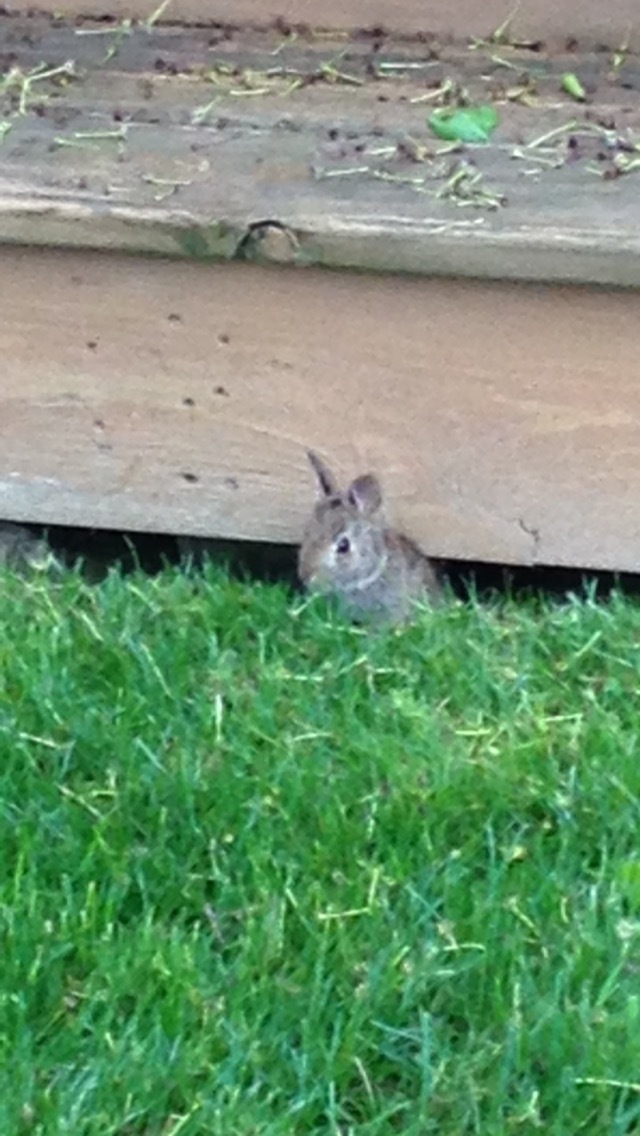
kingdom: Animalia
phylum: Chordata
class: Mammalia
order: Lagomorpha
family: Leporidae
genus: Sylvilagus
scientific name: Sylvilagus floridanus
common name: Eastern cottontail
